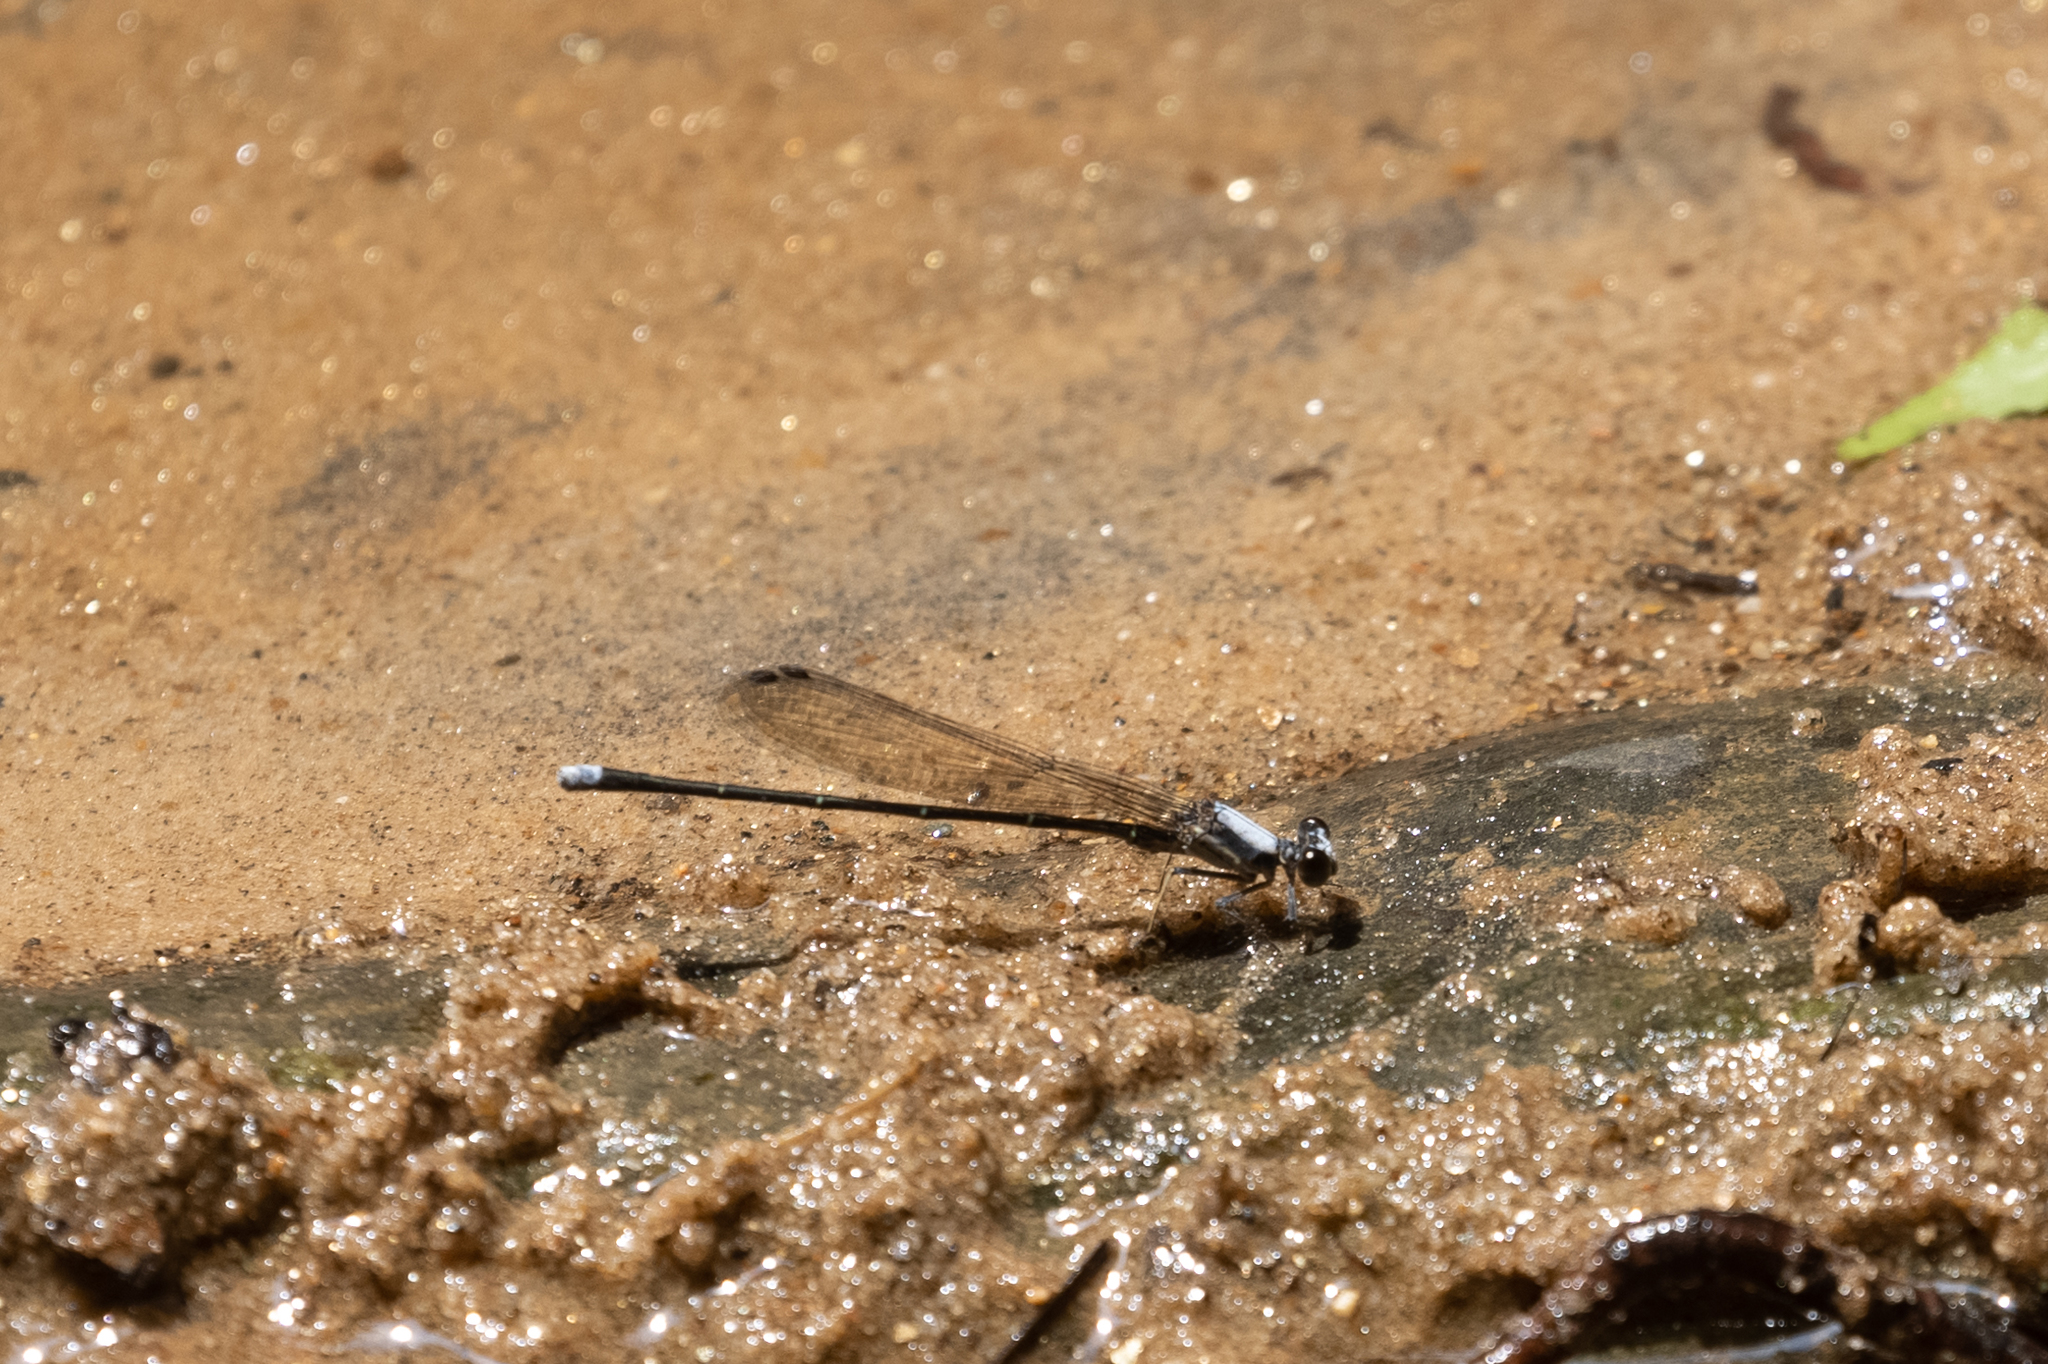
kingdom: Animalia
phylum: Arthropoda
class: Insecta
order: Odonata
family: Coenagrionidae
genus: Argia
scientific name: Argia moesta
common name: Powdered dancer
